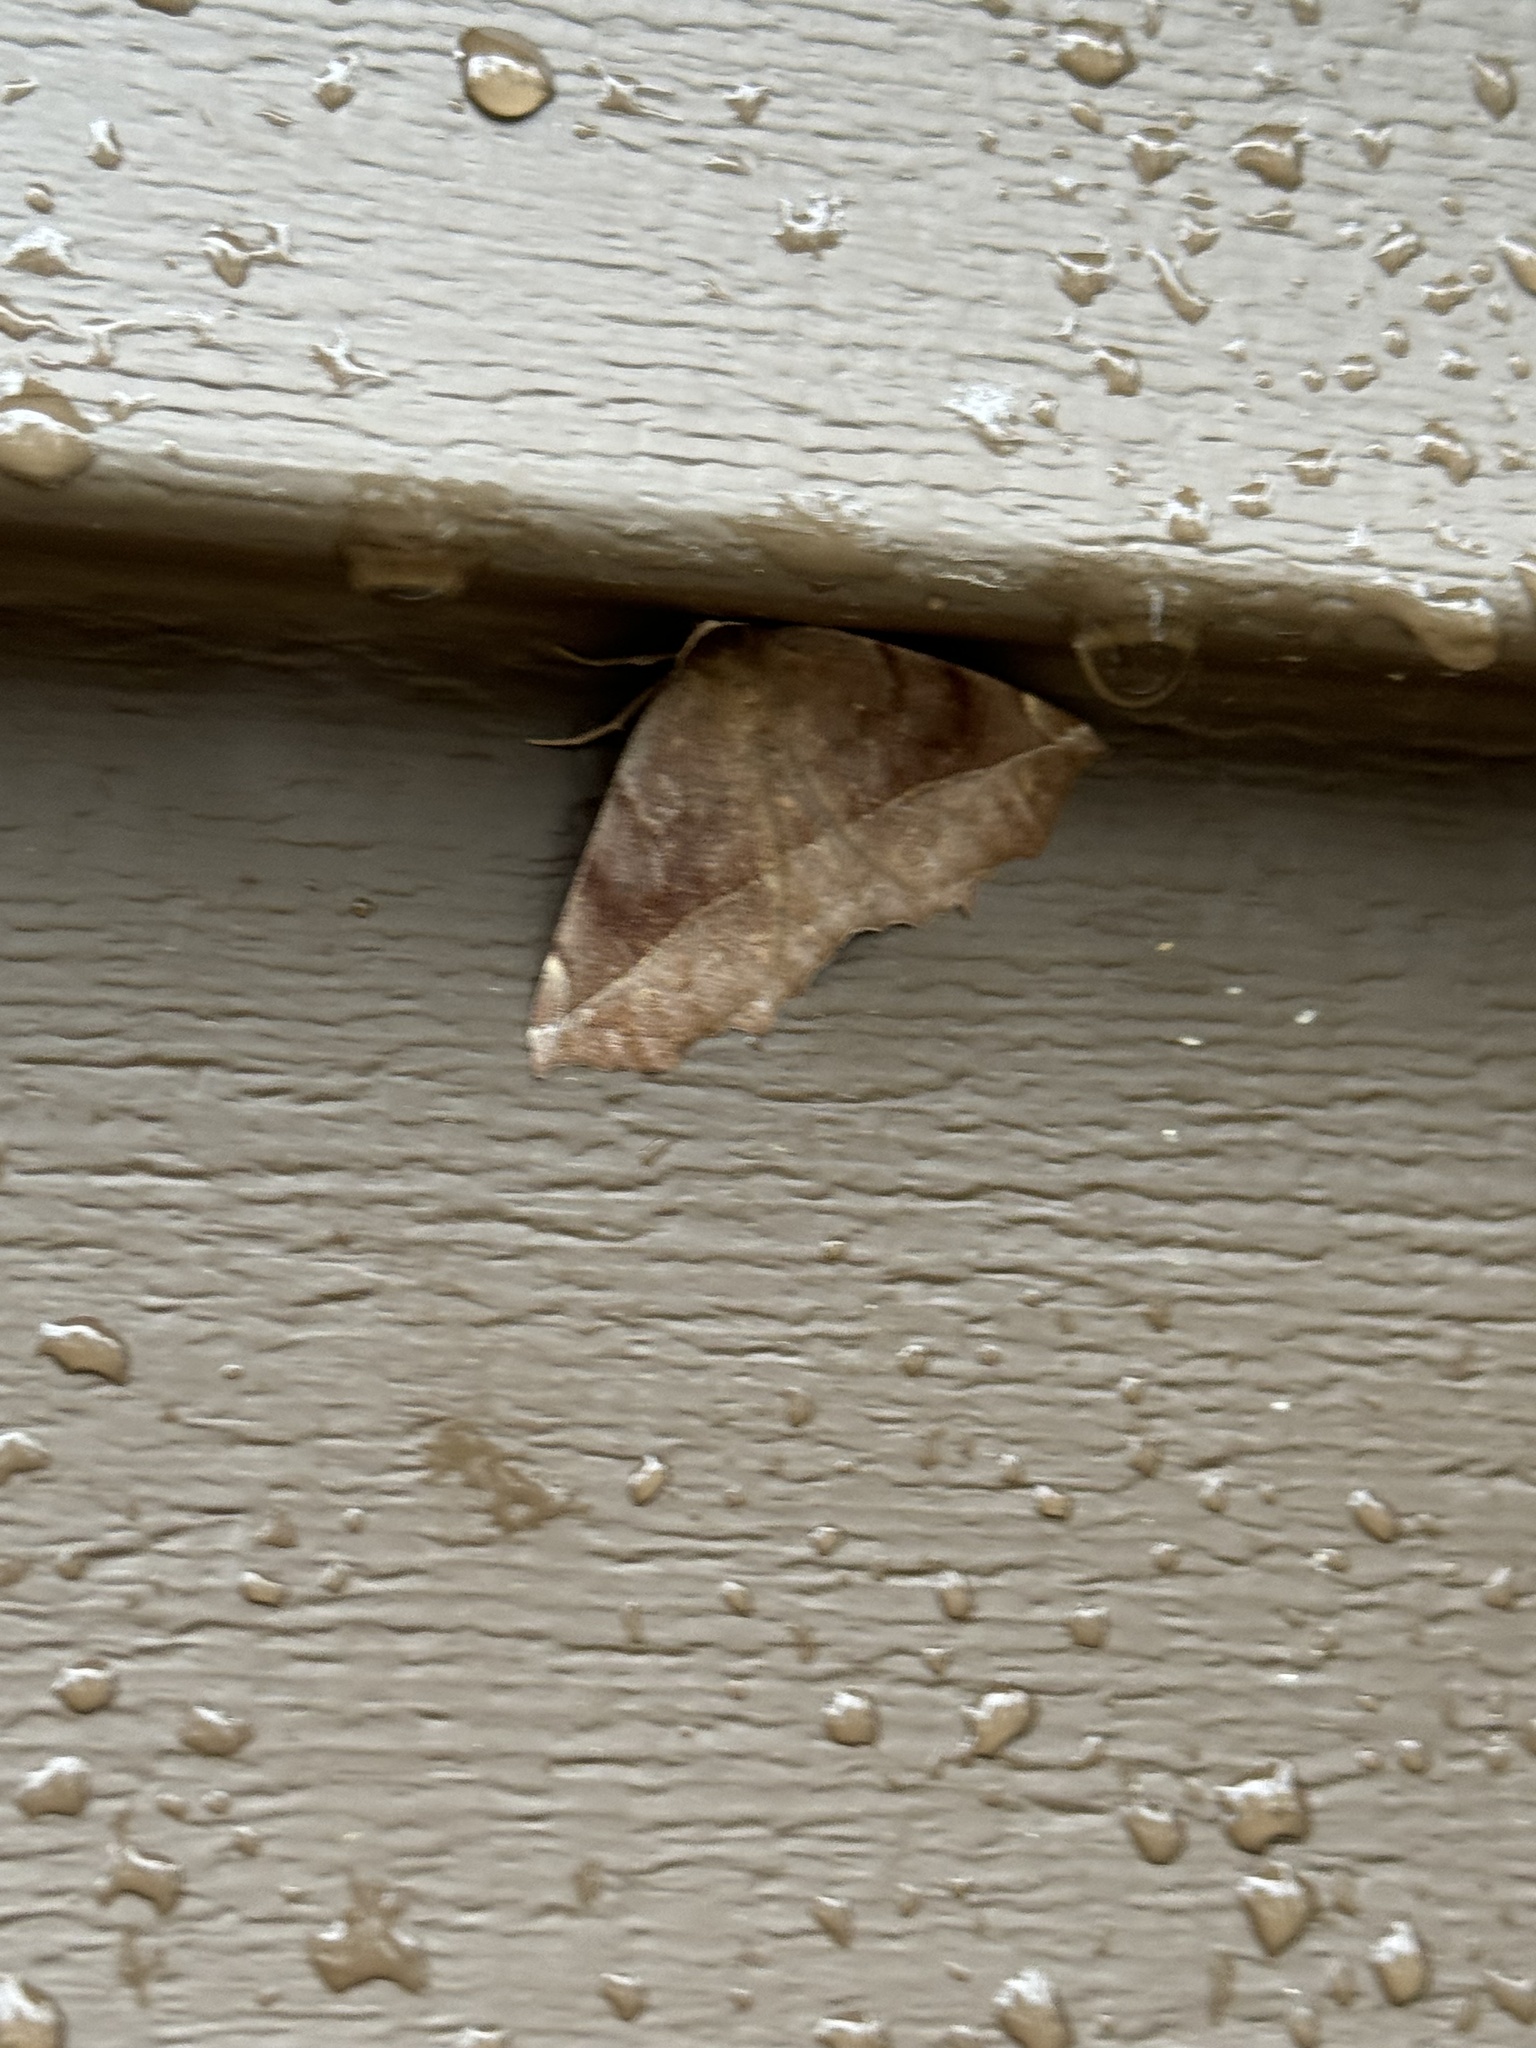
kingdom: Animalia
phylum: Arthropoda
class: Insecta
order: Lepidoptera
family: Geometridae
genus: Eutrapela
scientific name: Eutrapela clemataria
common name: Curved-toothed geometer
